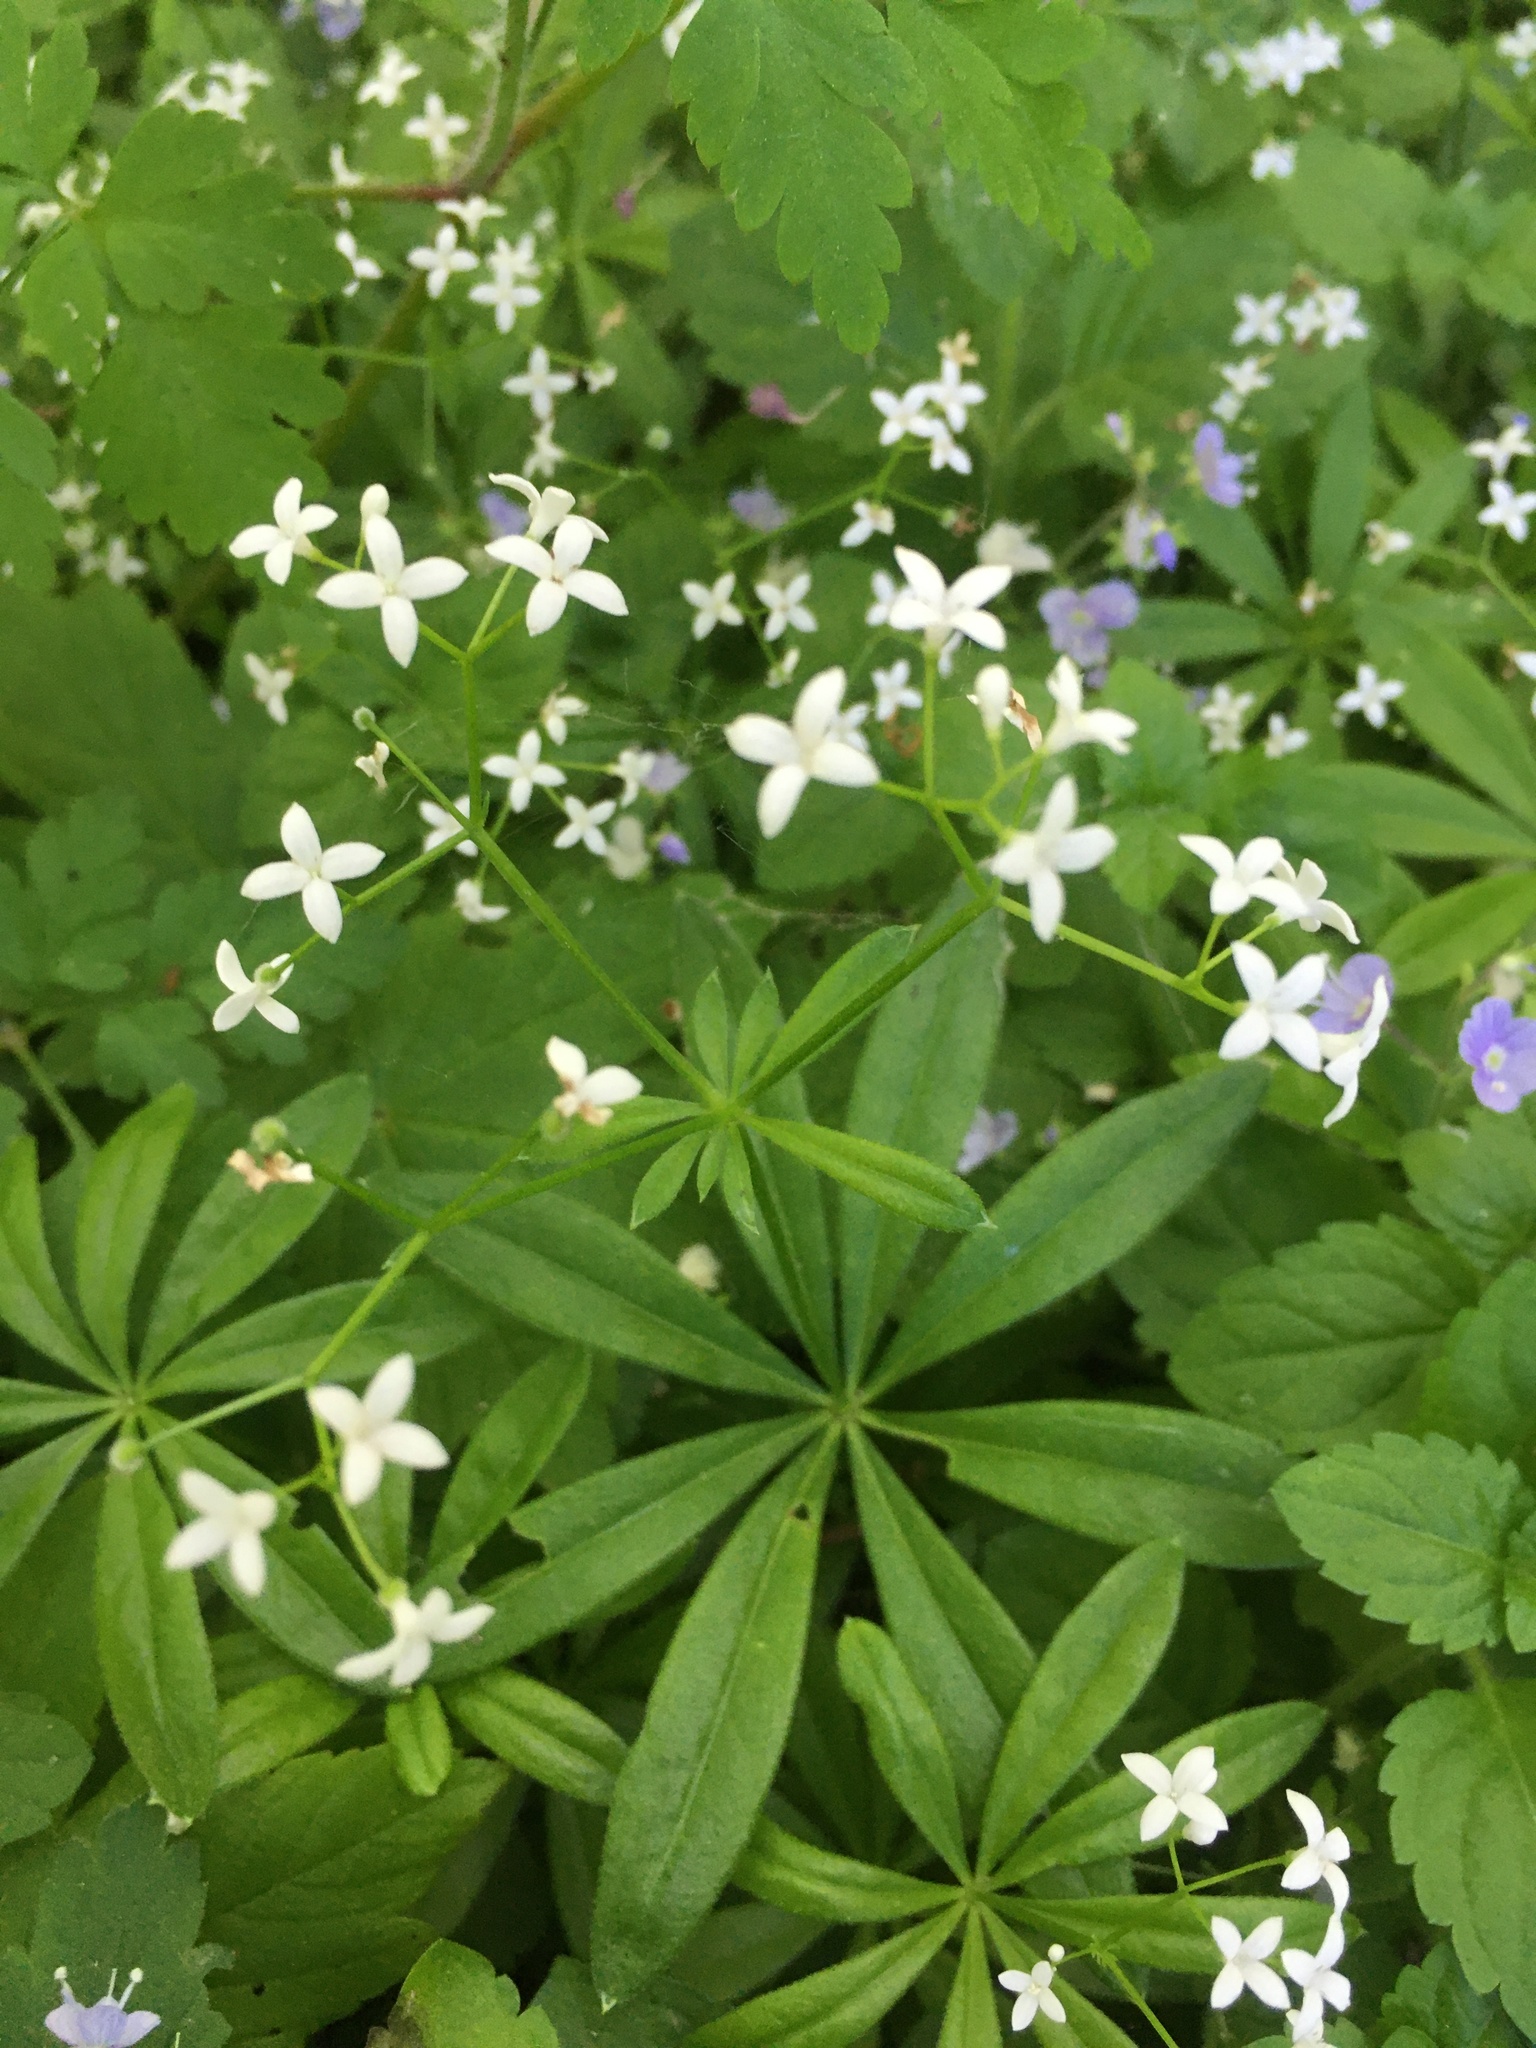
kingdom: Plantae
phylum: Tracheophyta
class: Magnoliopsida
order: Gentianales
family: Rubiaceae
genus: Galium
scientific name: Galium odoratum
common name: Sweet woodruff
